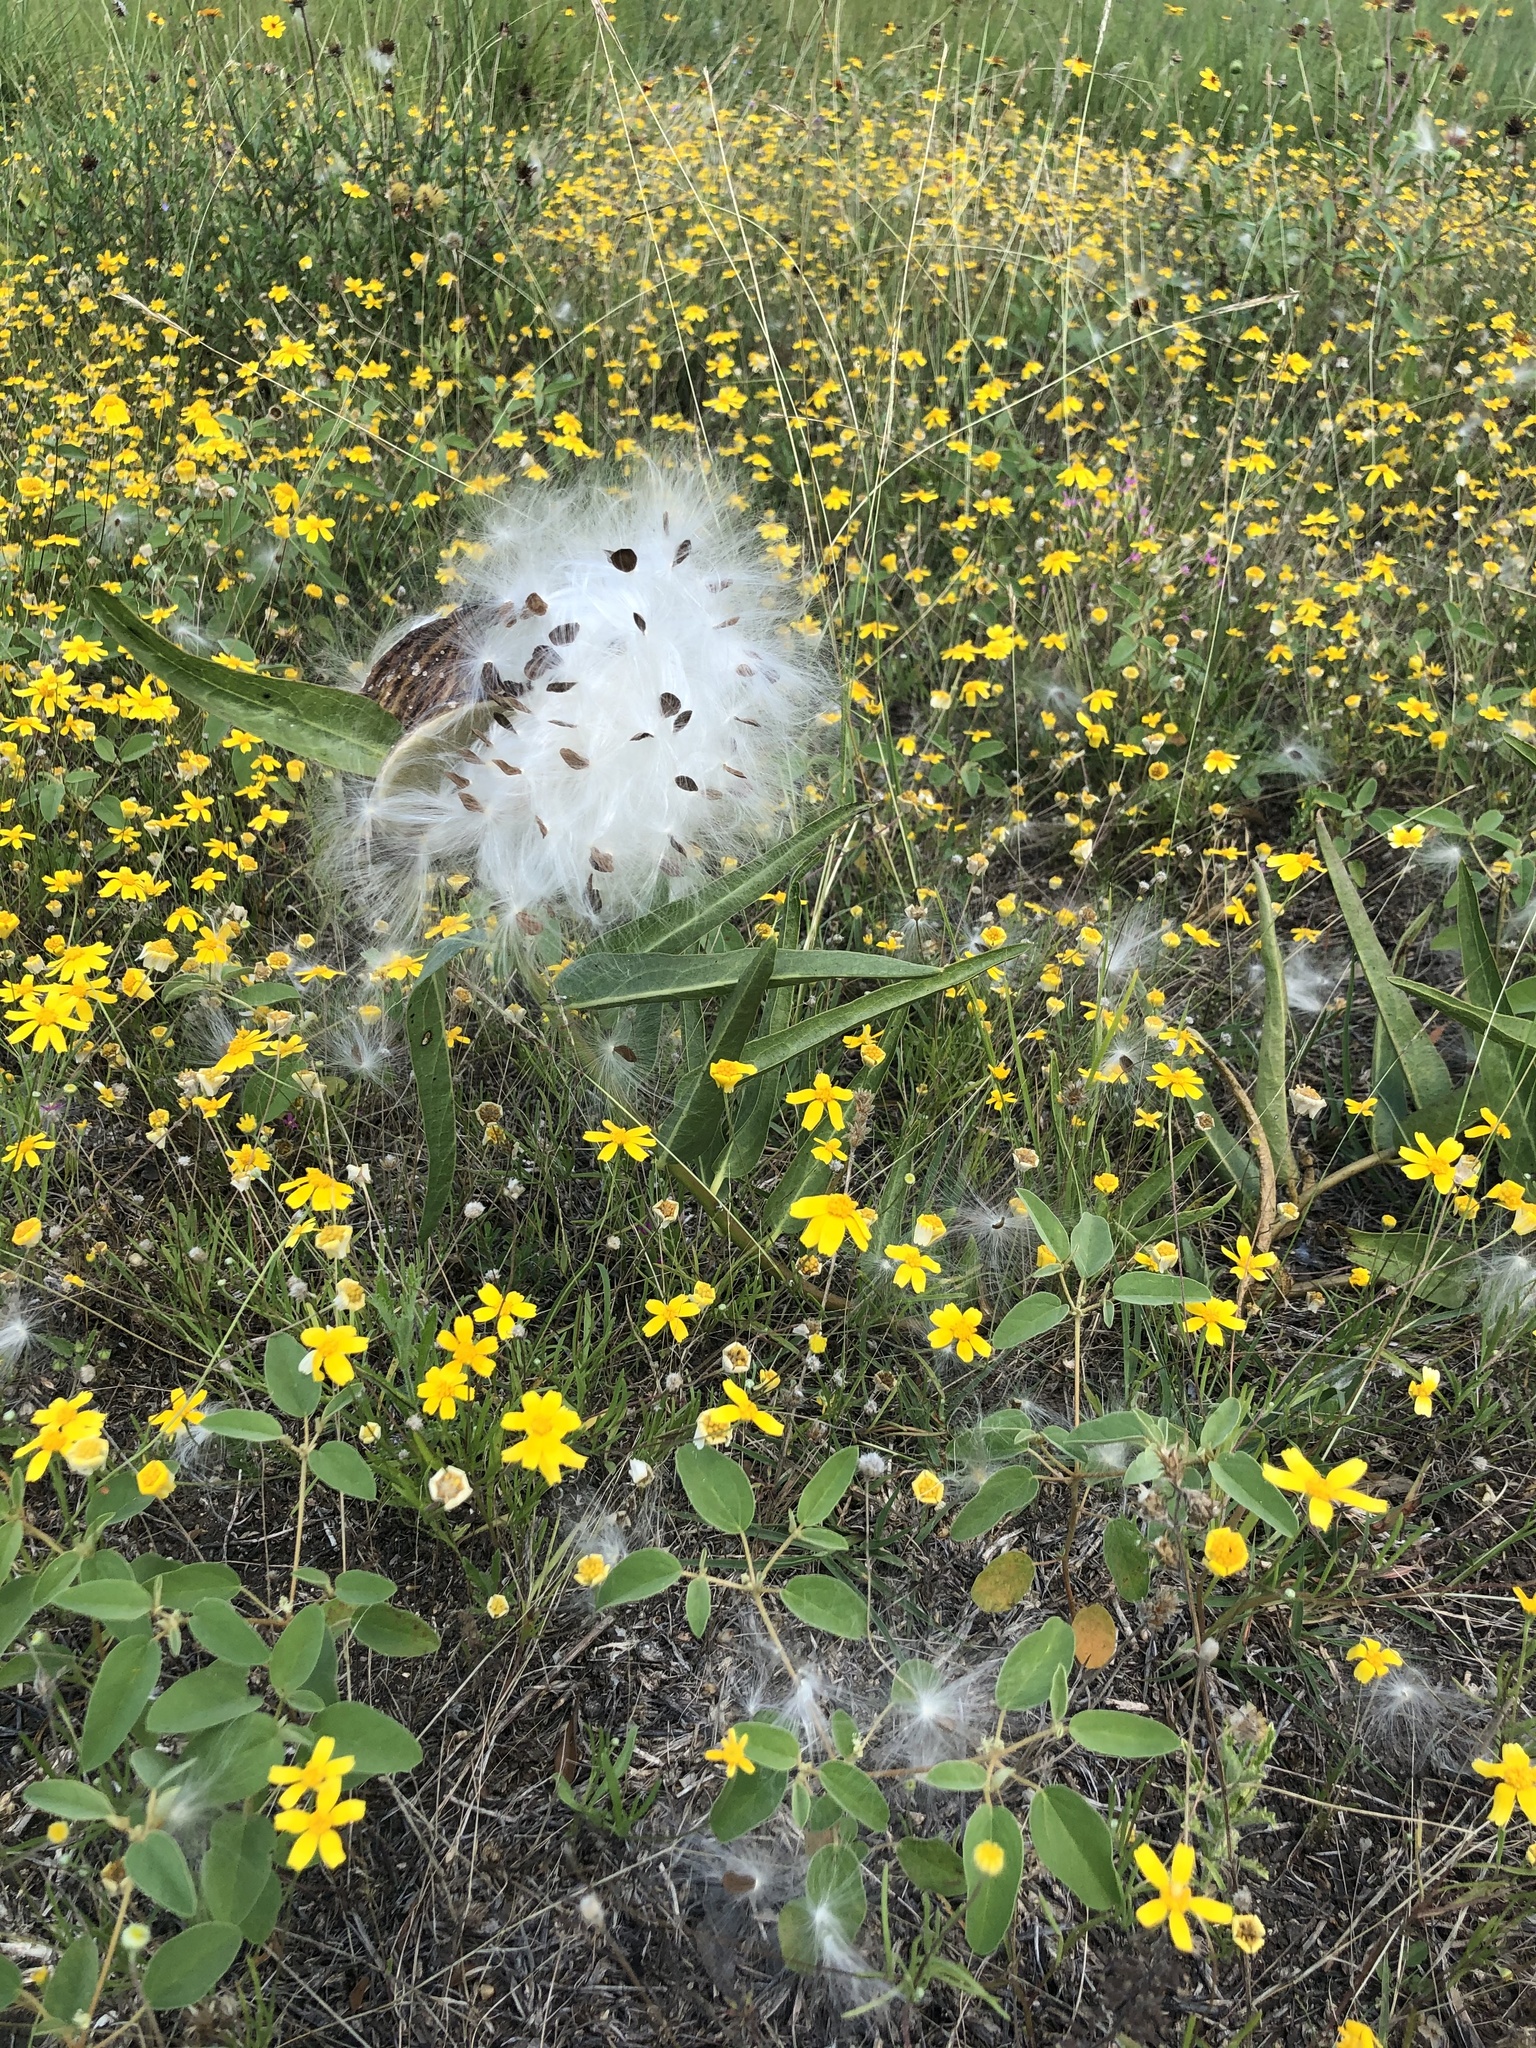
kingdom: Plantae
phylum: Tracheophyta
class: Magnoliopsida
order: Gentianales
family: Apocynaceae
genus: Asclepias
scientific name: Asclepias asperula
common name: Antelope horns
